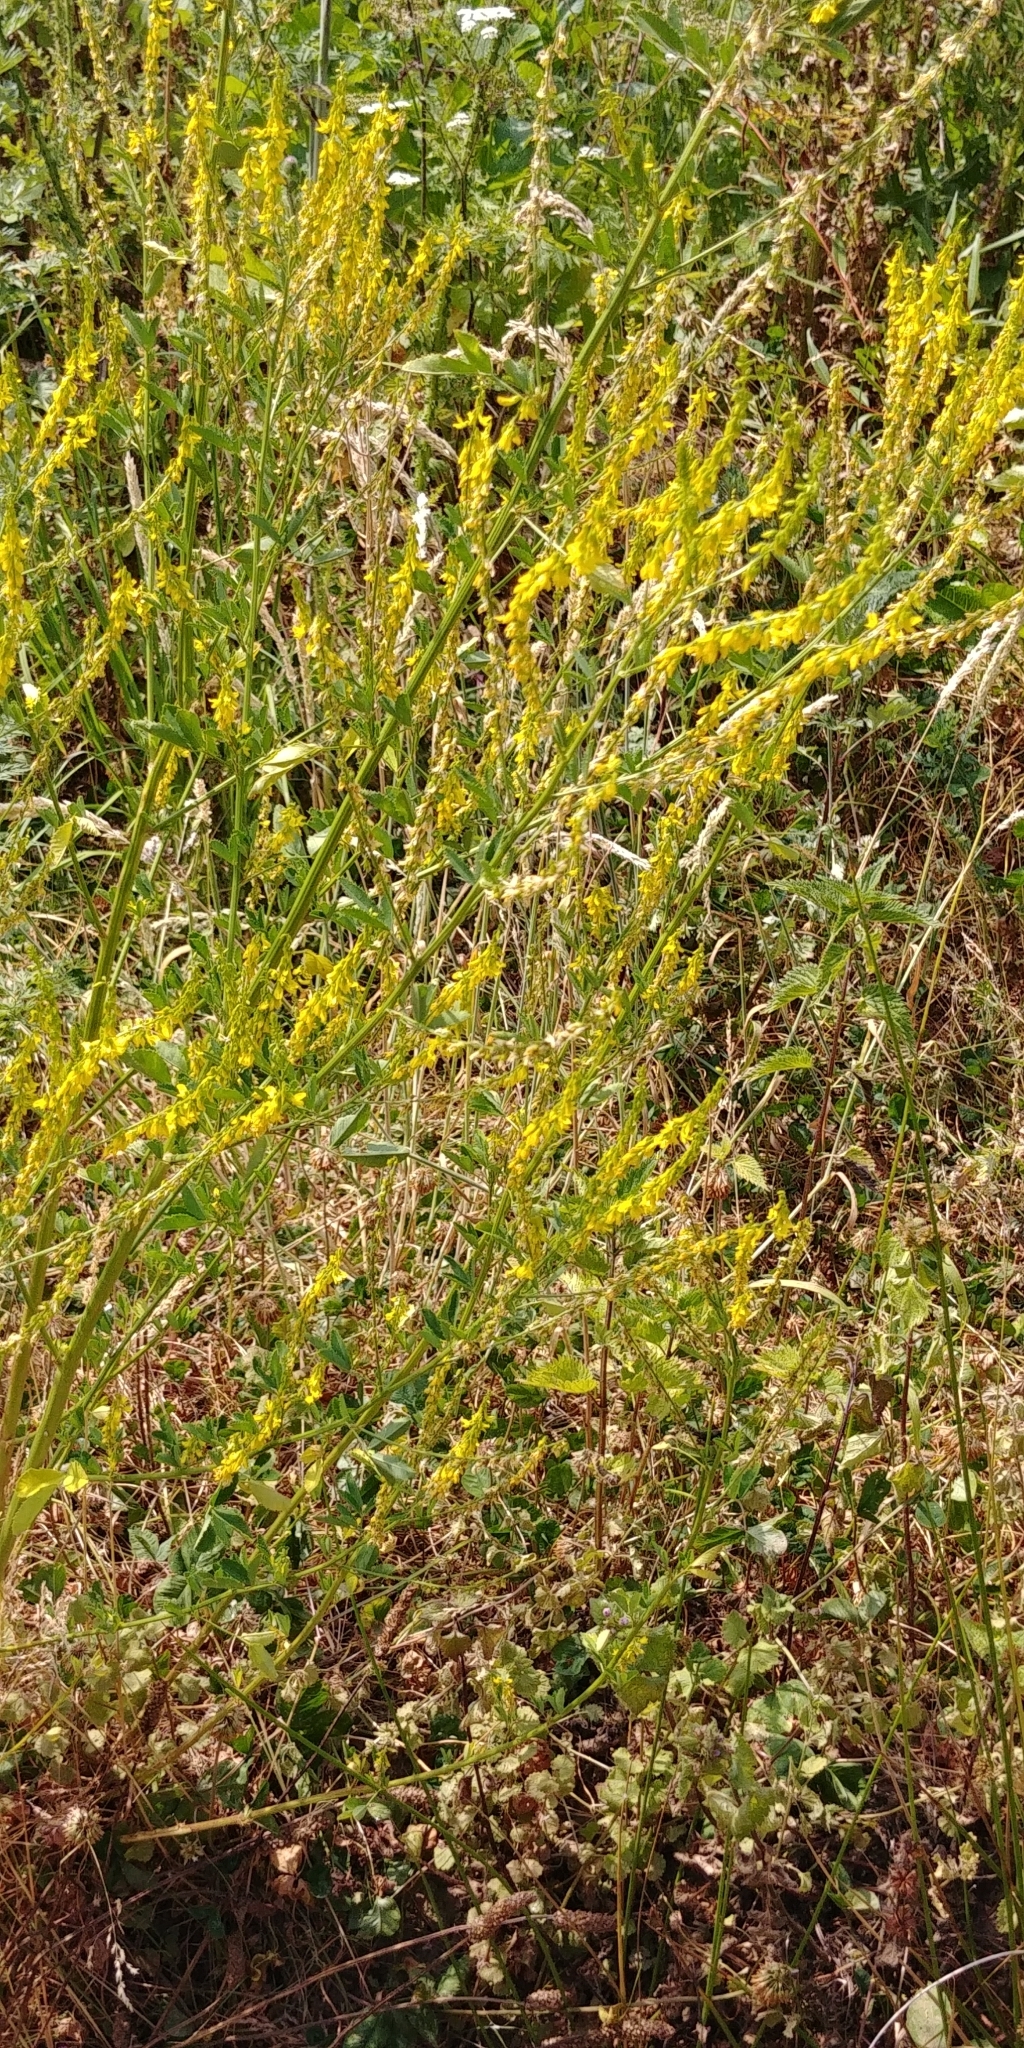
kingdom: Plantae
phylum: Tracheophyta
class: Magnoliopsida
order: Fabales
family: Fabaceae
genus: Melilotus
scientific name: Melilotus officinalis
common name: Sweetclover
